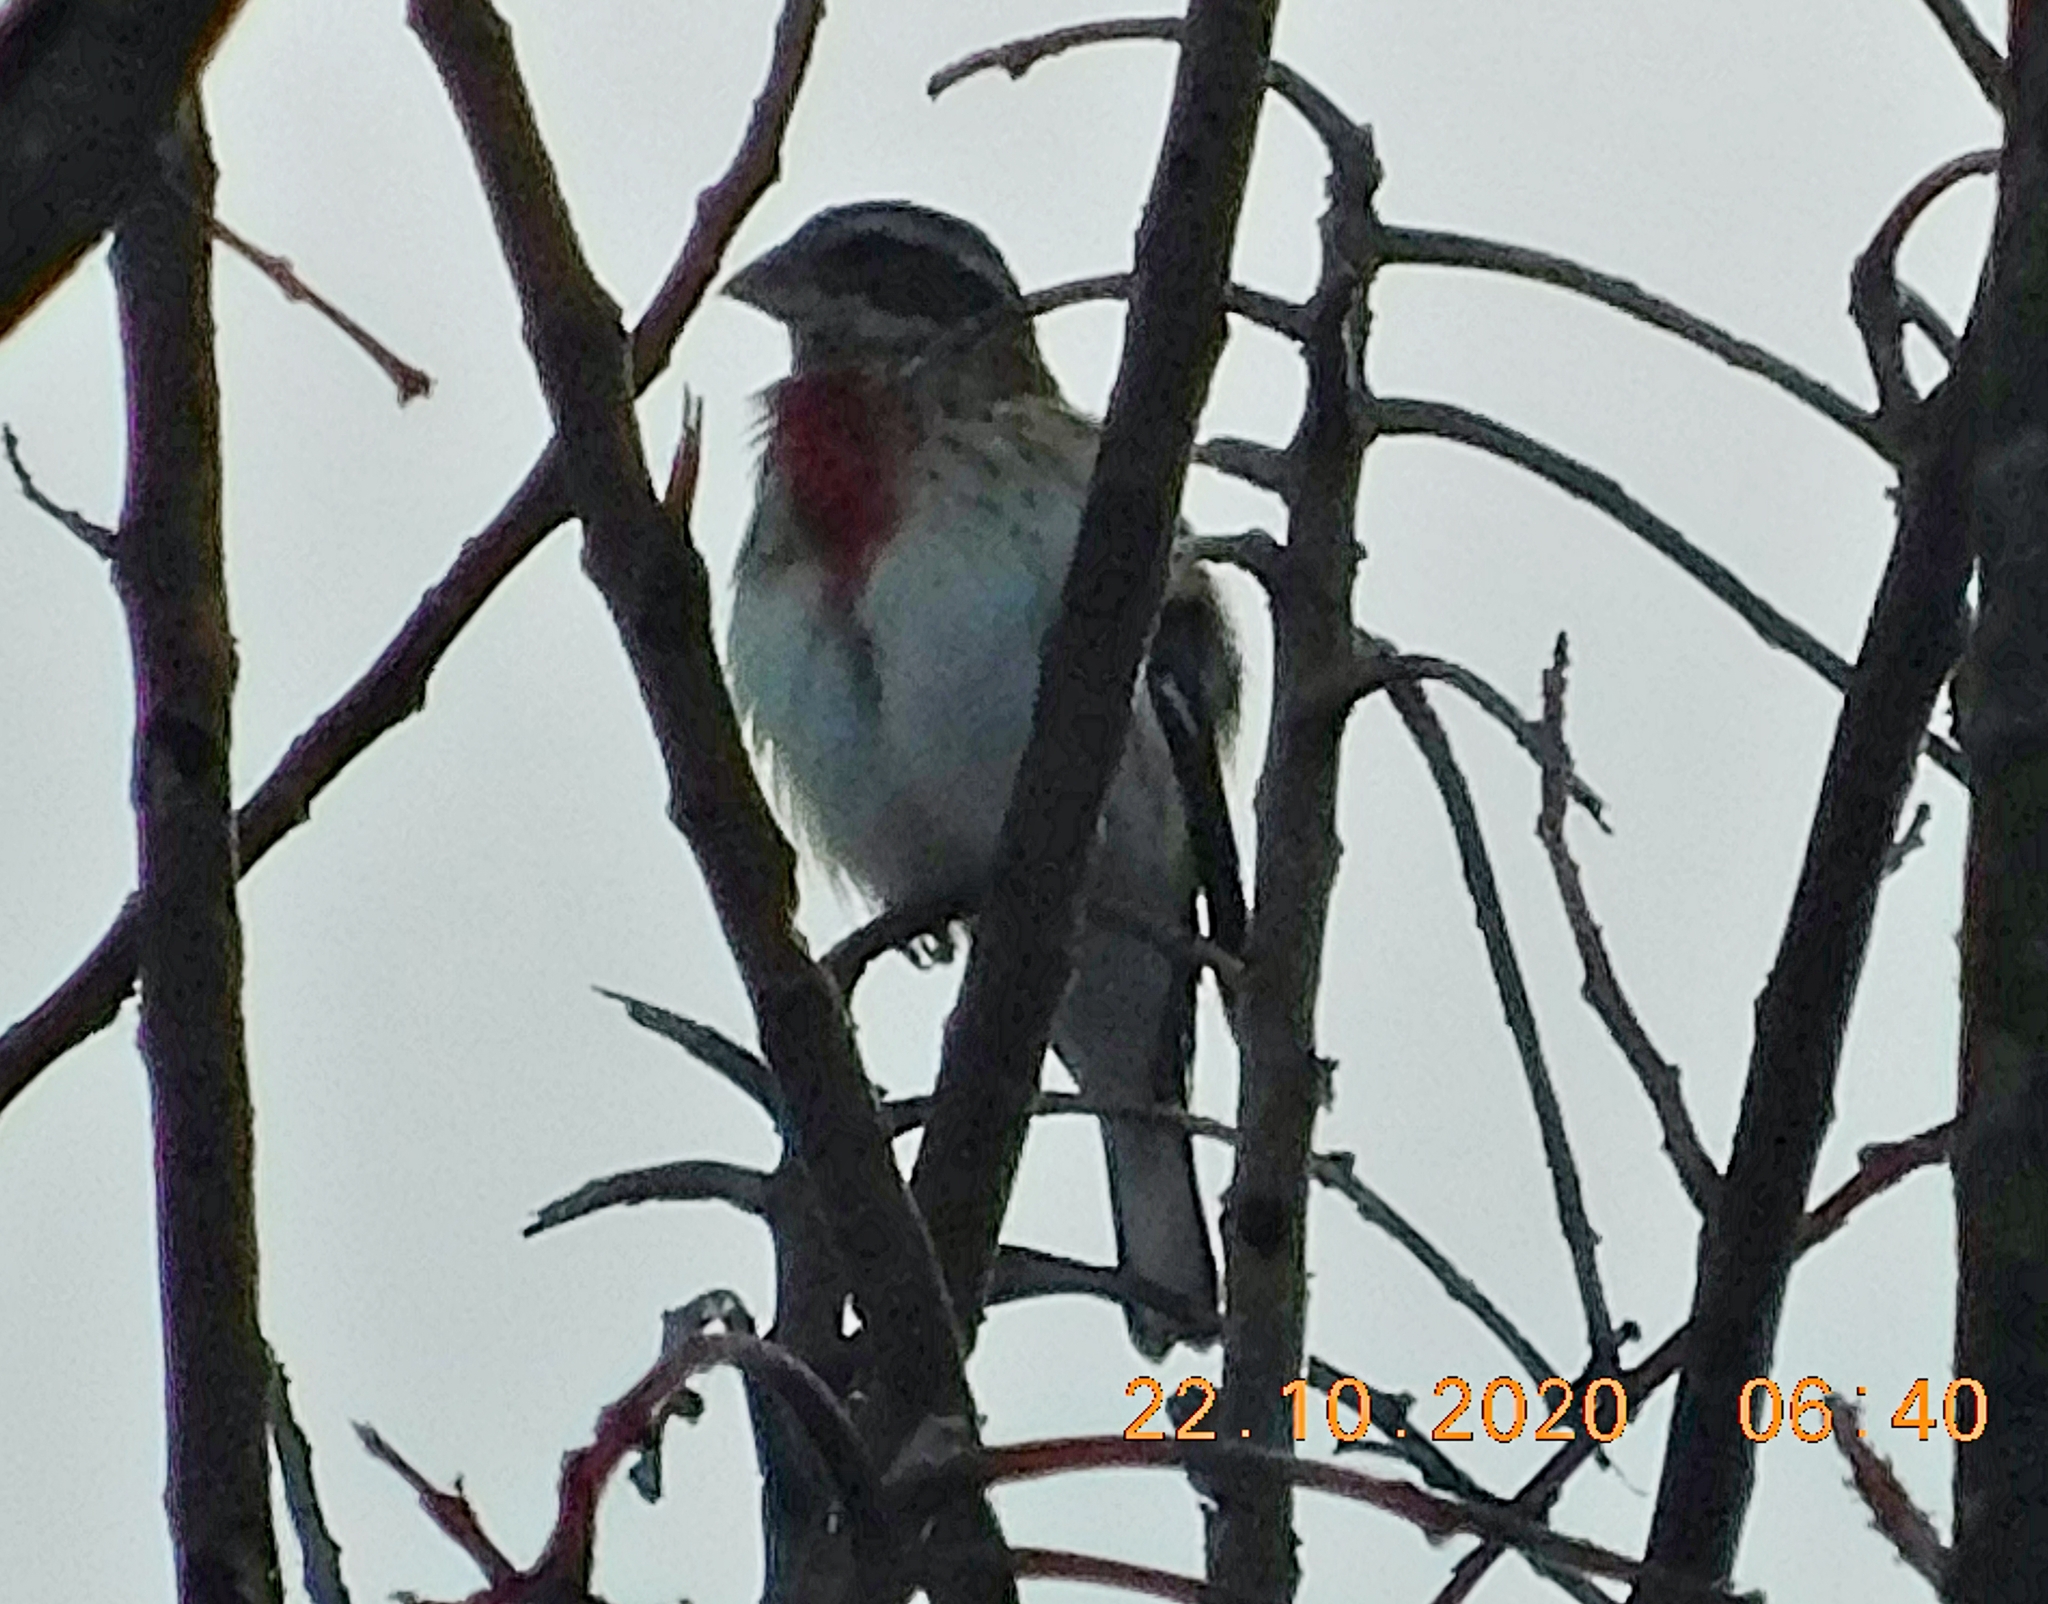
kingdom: Animalia
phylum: Chordata
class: Aves
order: Passeriformes
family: Cardinalidae
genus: Pheucticus
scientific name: Pheucticus ludovicianus
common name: Rose-breasted grosbeak
